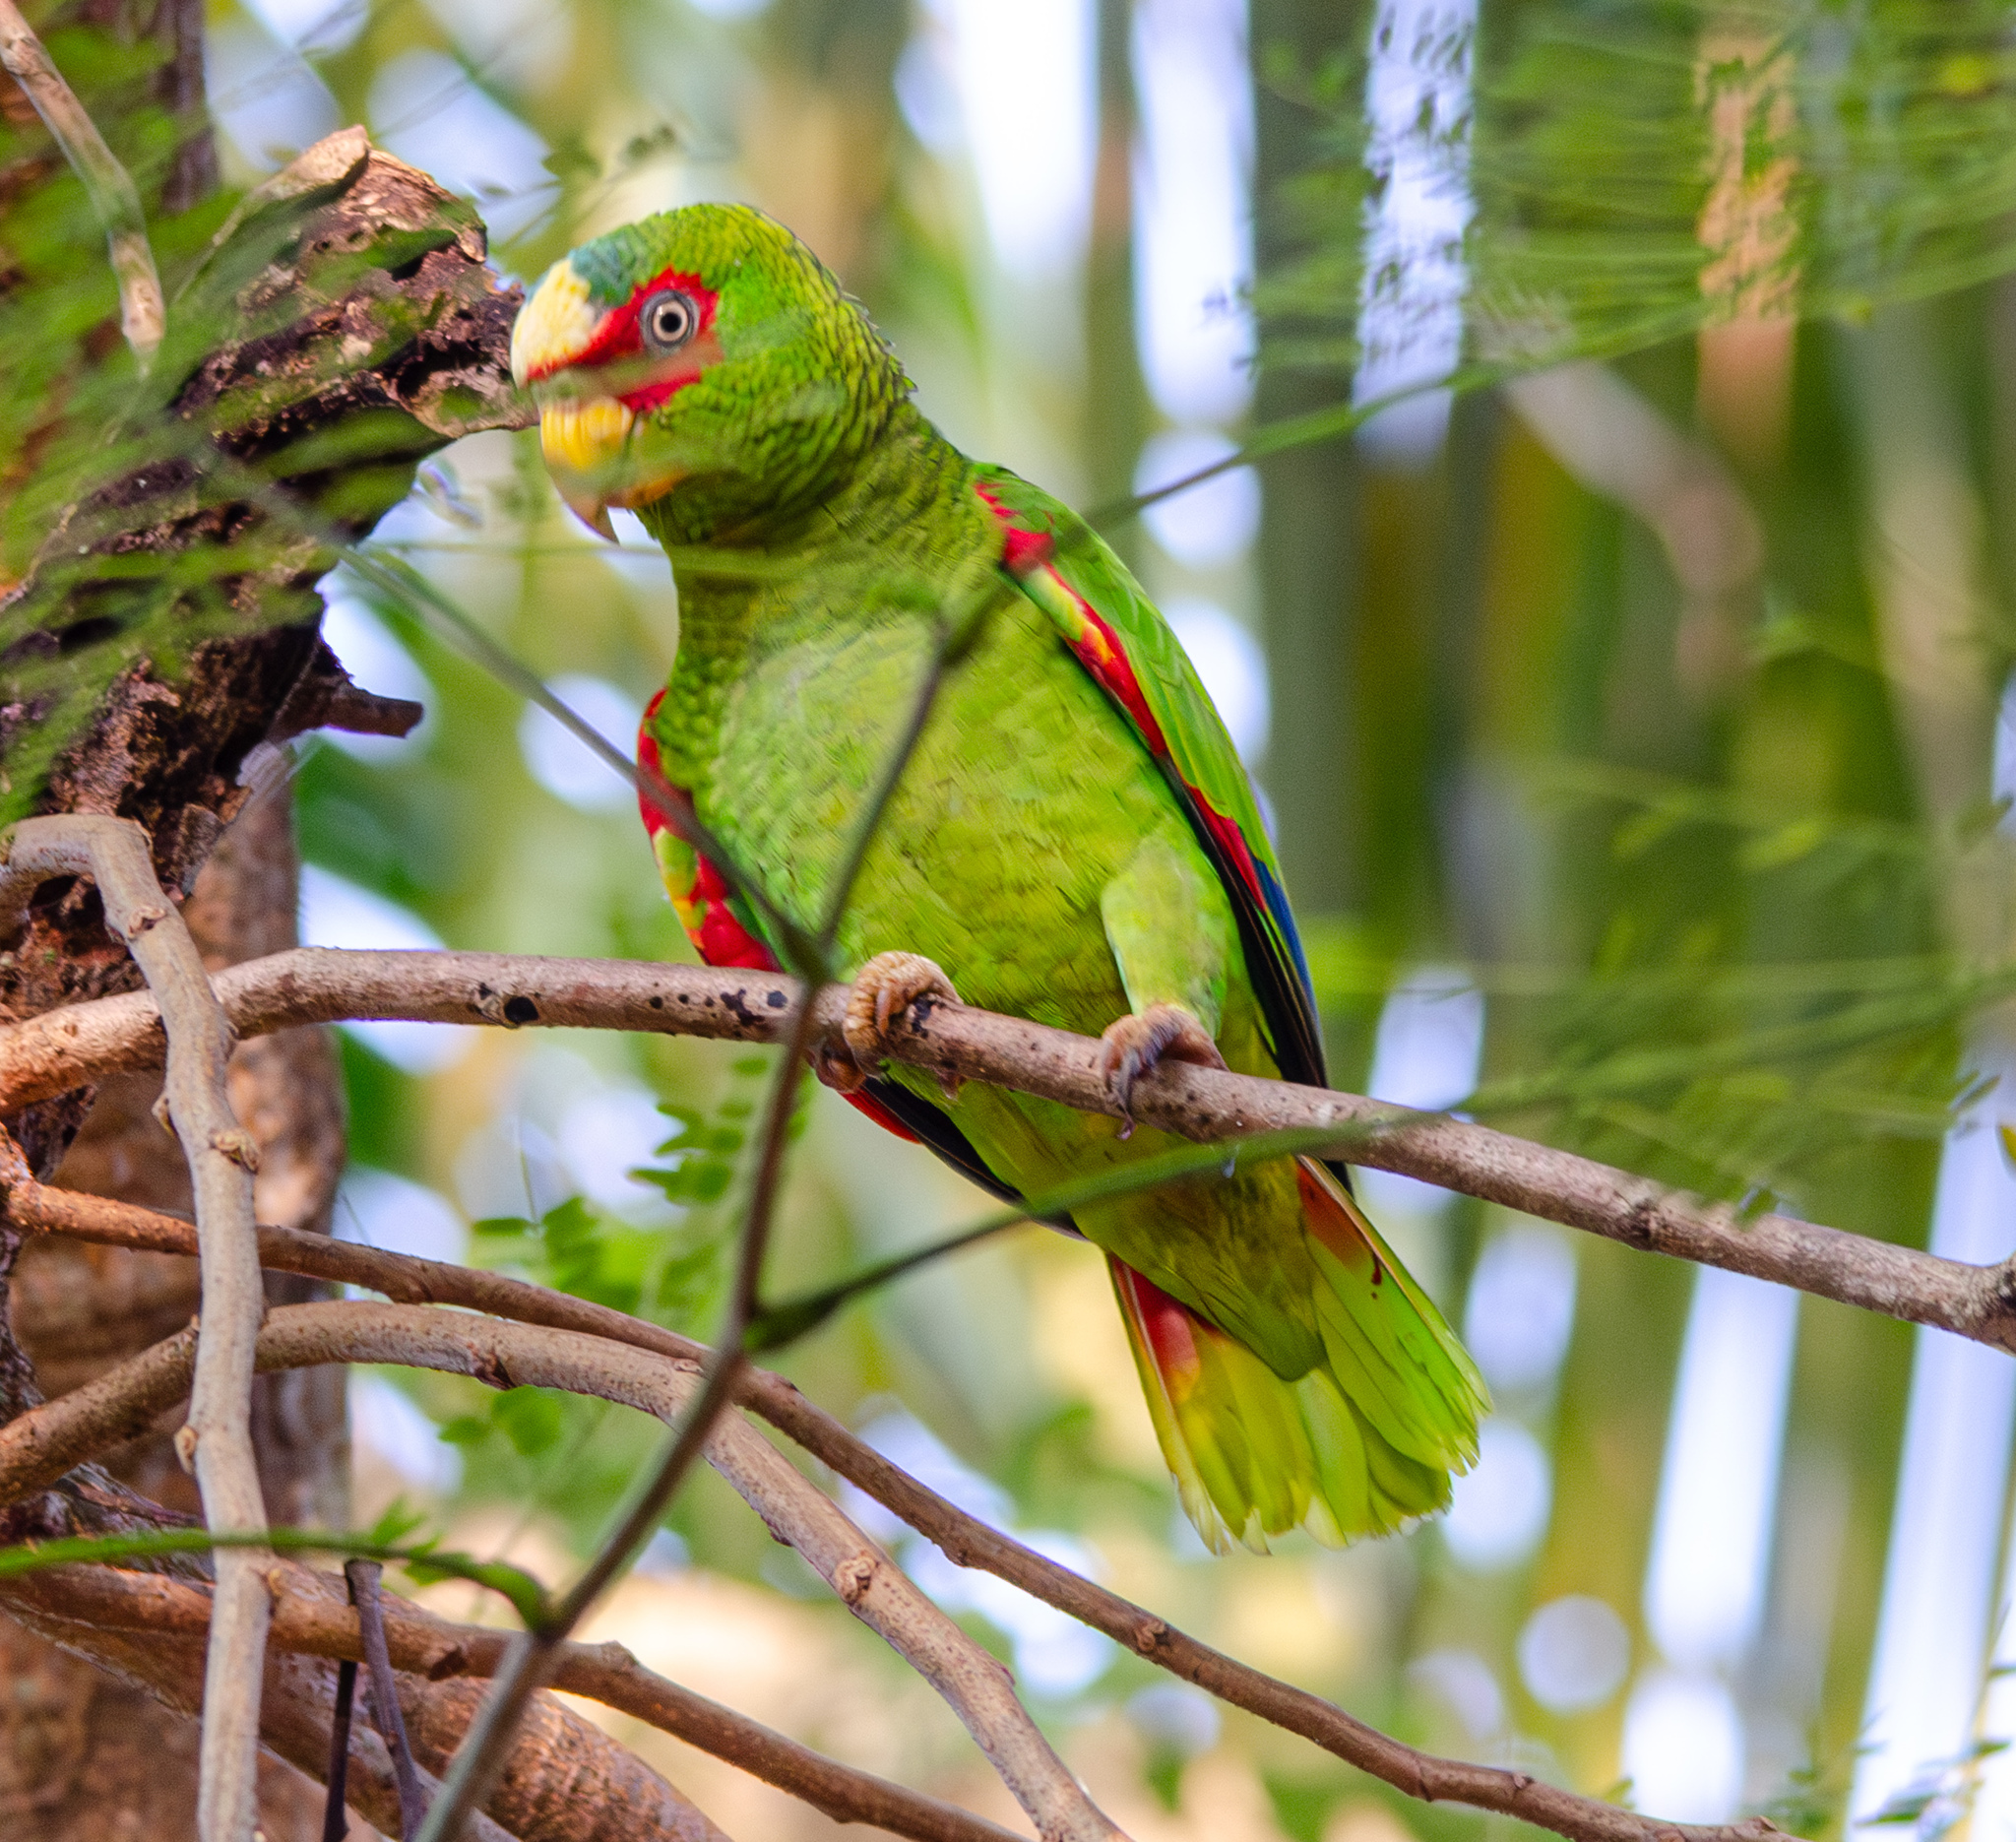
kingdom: Animalia
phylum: Chordata
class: Aves
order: Psittaciformes
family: Psittacidae
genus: Amazona
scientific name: Amazona albifrons
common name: White-fronted amazon
